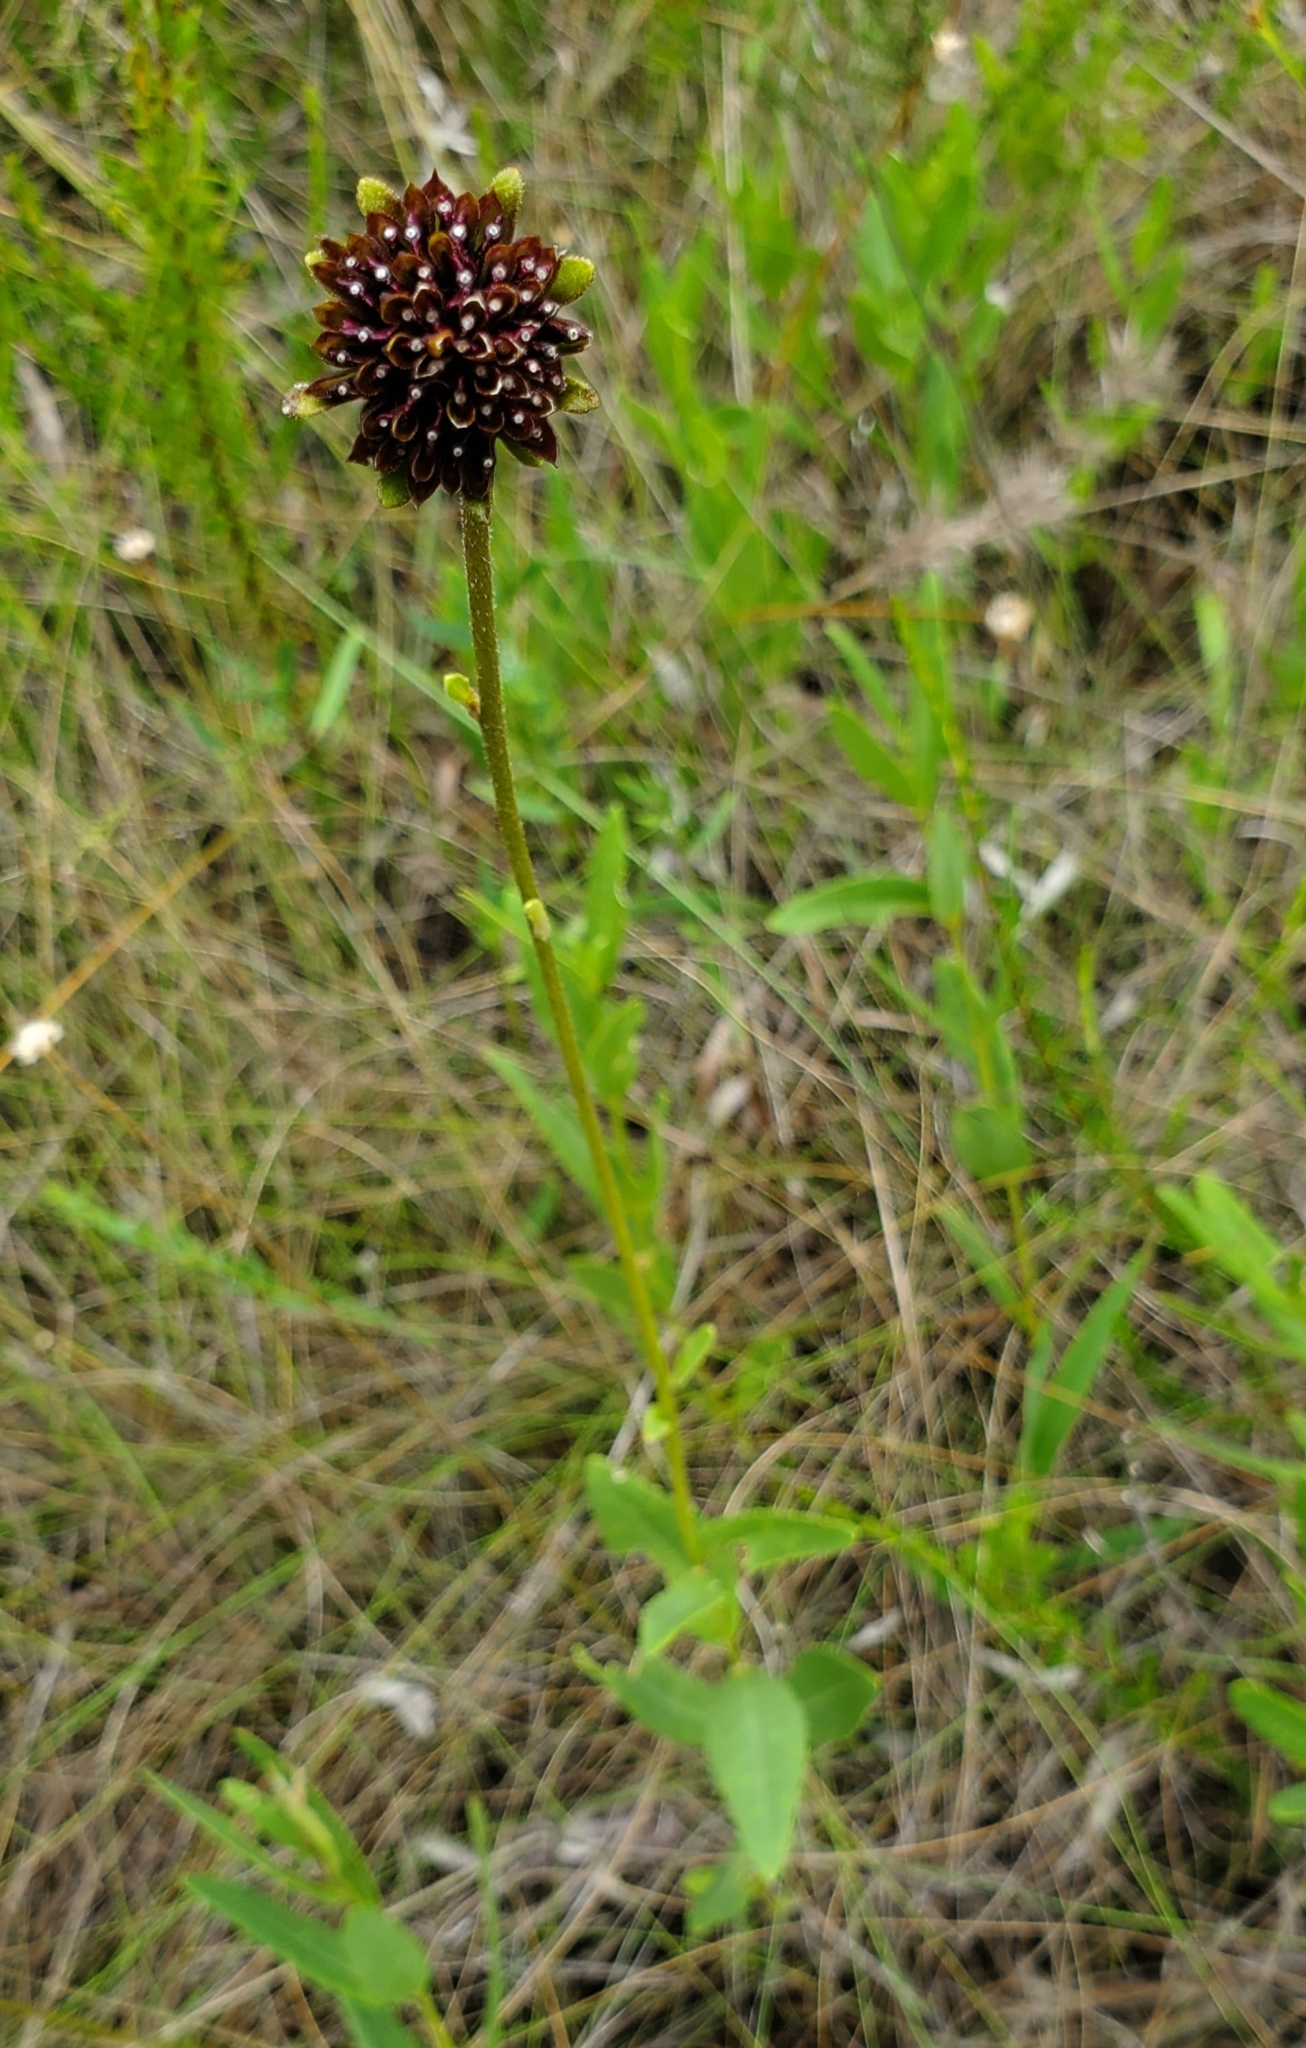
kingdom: Plantae
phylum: Tracheophyta
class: Magnoliopsida
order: Asterales
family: Asteraceae
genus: Verbesina
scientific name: Verbesina chapmanii
